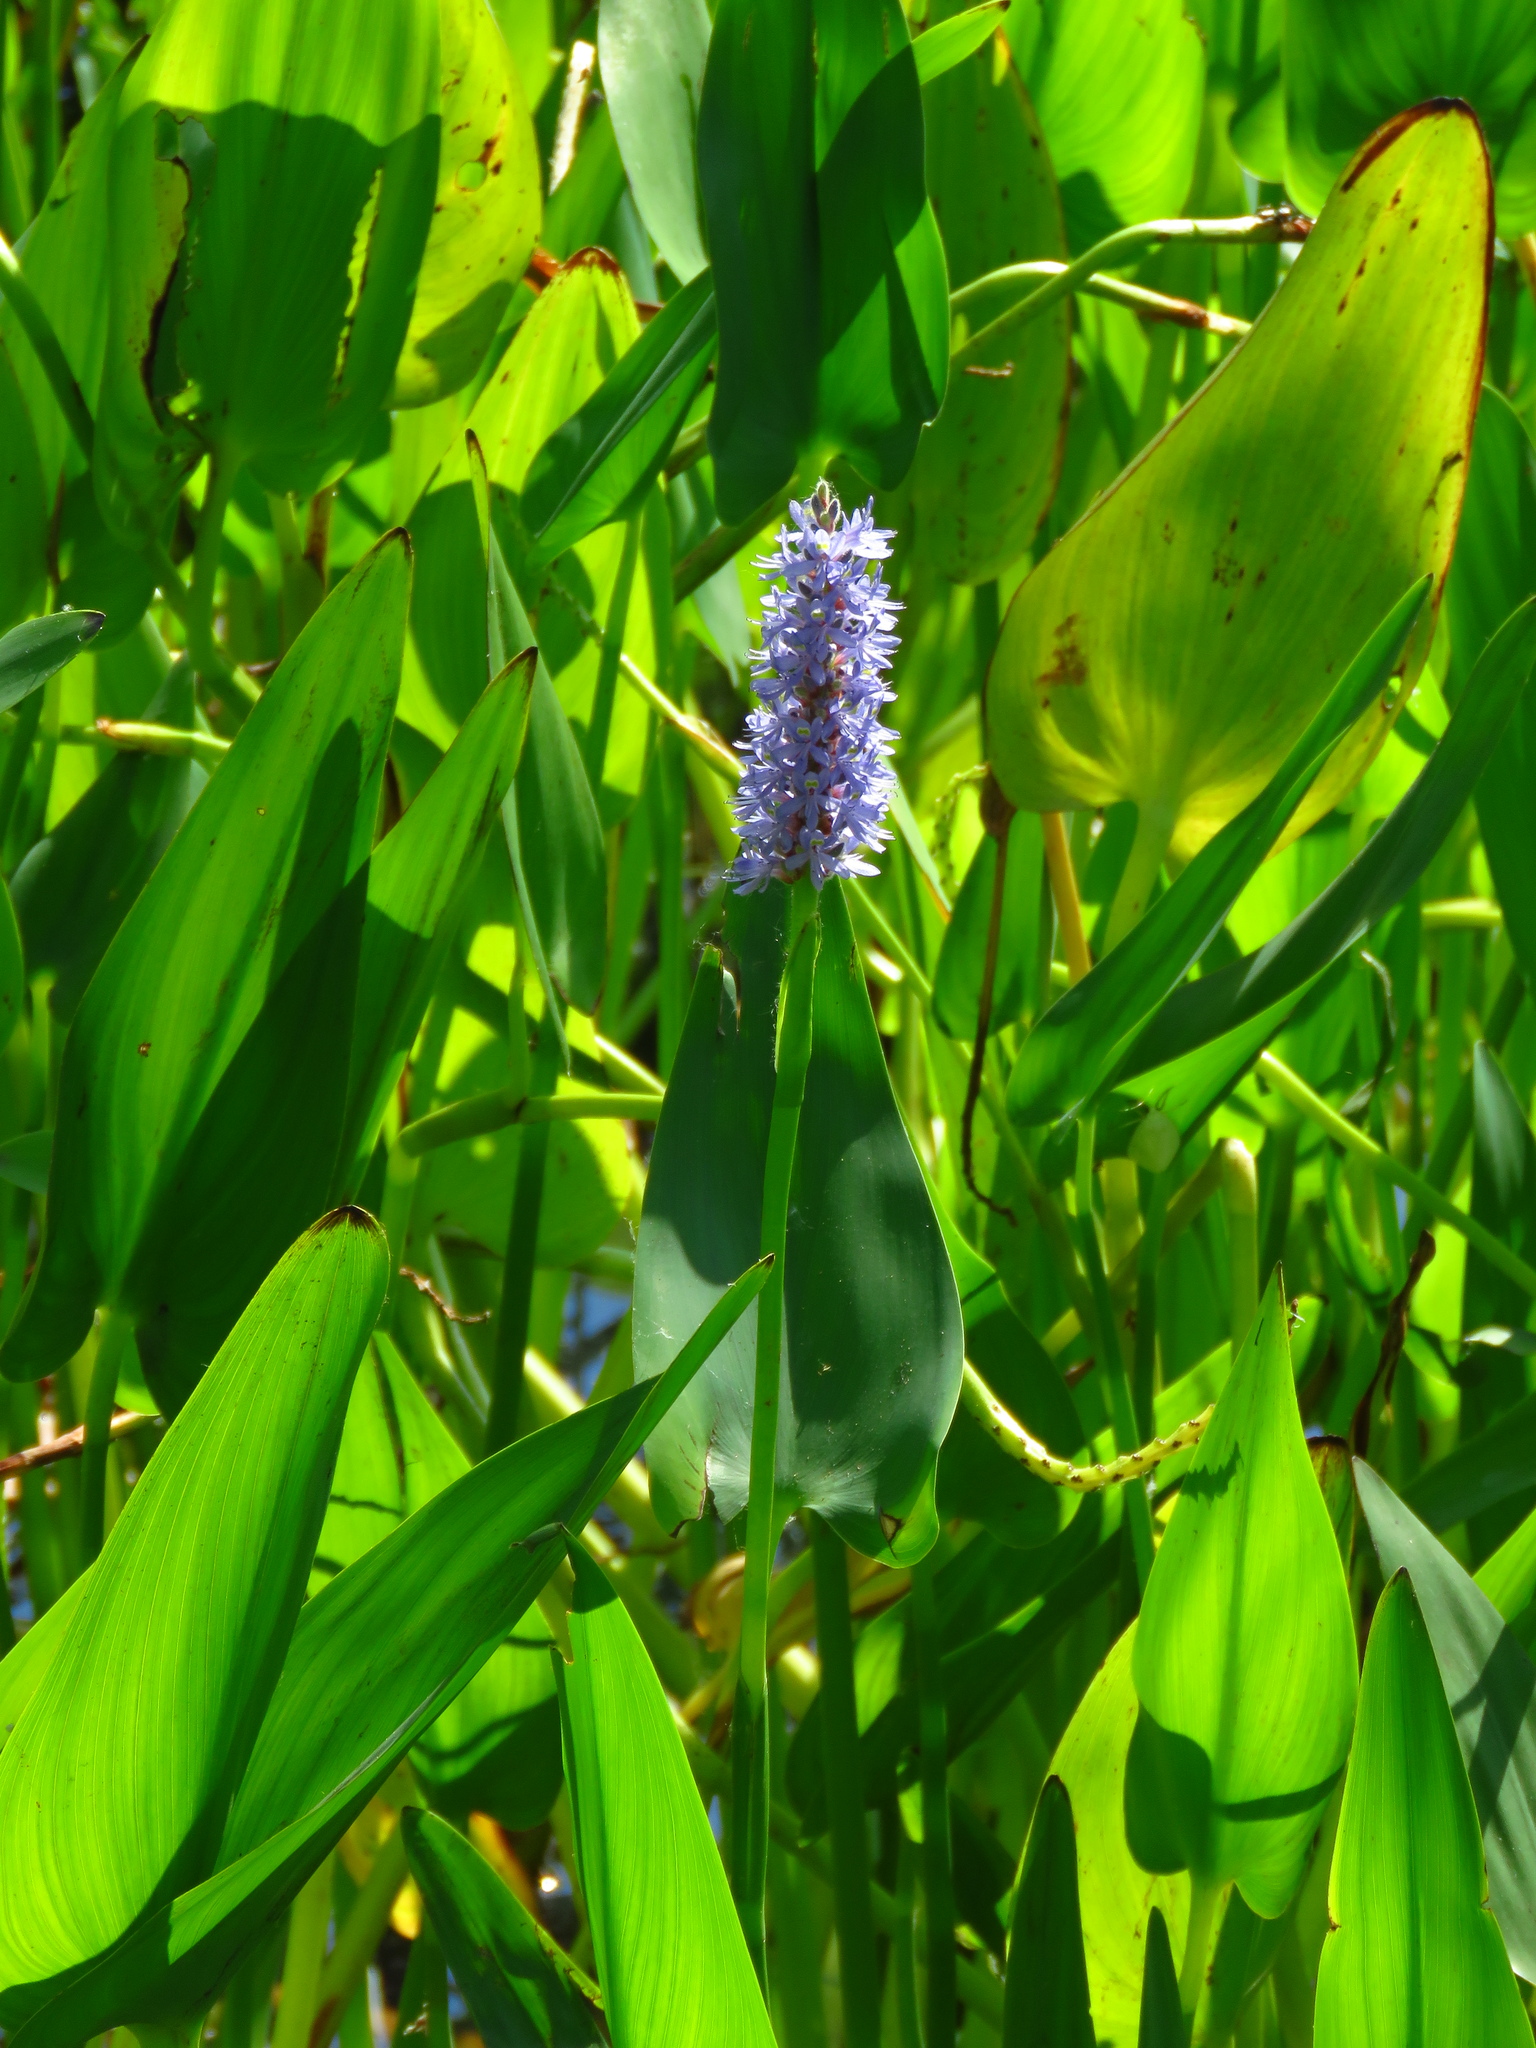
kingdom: Plantae
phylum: Tracheophyta
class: Liliopsida
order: Commelinales
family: Pontederiaceae
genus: Pontederia
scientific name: Pontederia cordata
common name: Pickerelweed
